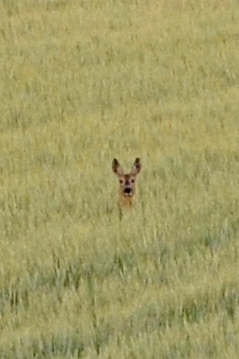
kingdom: Animalia
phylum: Chordata
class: Mammalia
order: Artiodactyla
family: Cervidae
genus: Capreolus
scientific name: Capreolus capreolus
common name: Western roe deer
